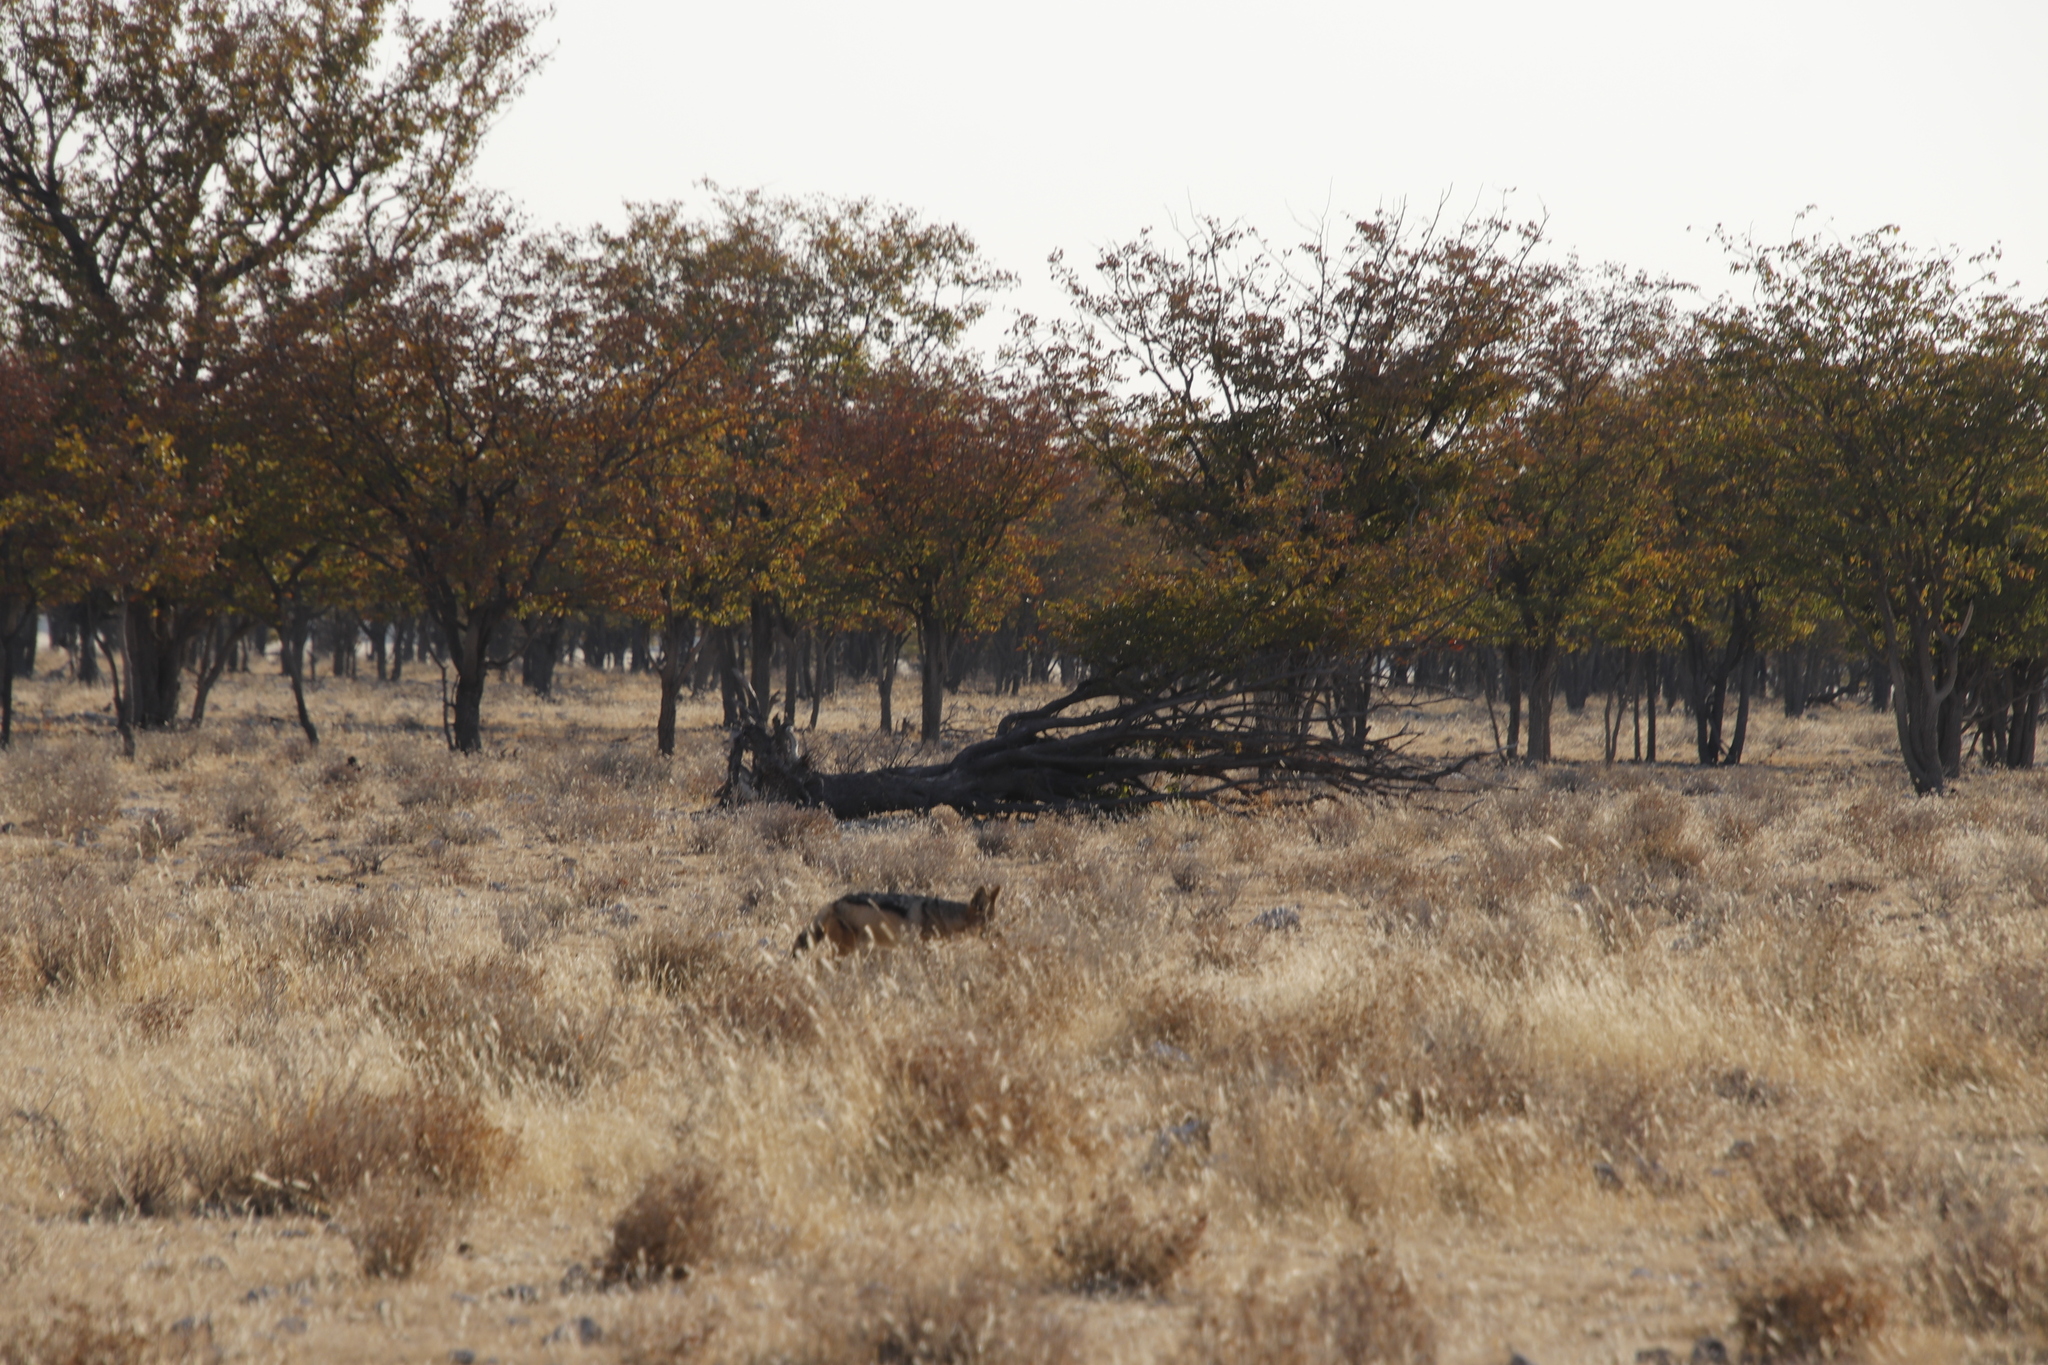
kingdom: Plantae
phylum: Tracheophyta
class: Magnoliopsida
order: Fabales
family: Fabaceae
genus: Colophospermum
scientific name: Colophospermum mopane
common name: Mopane
